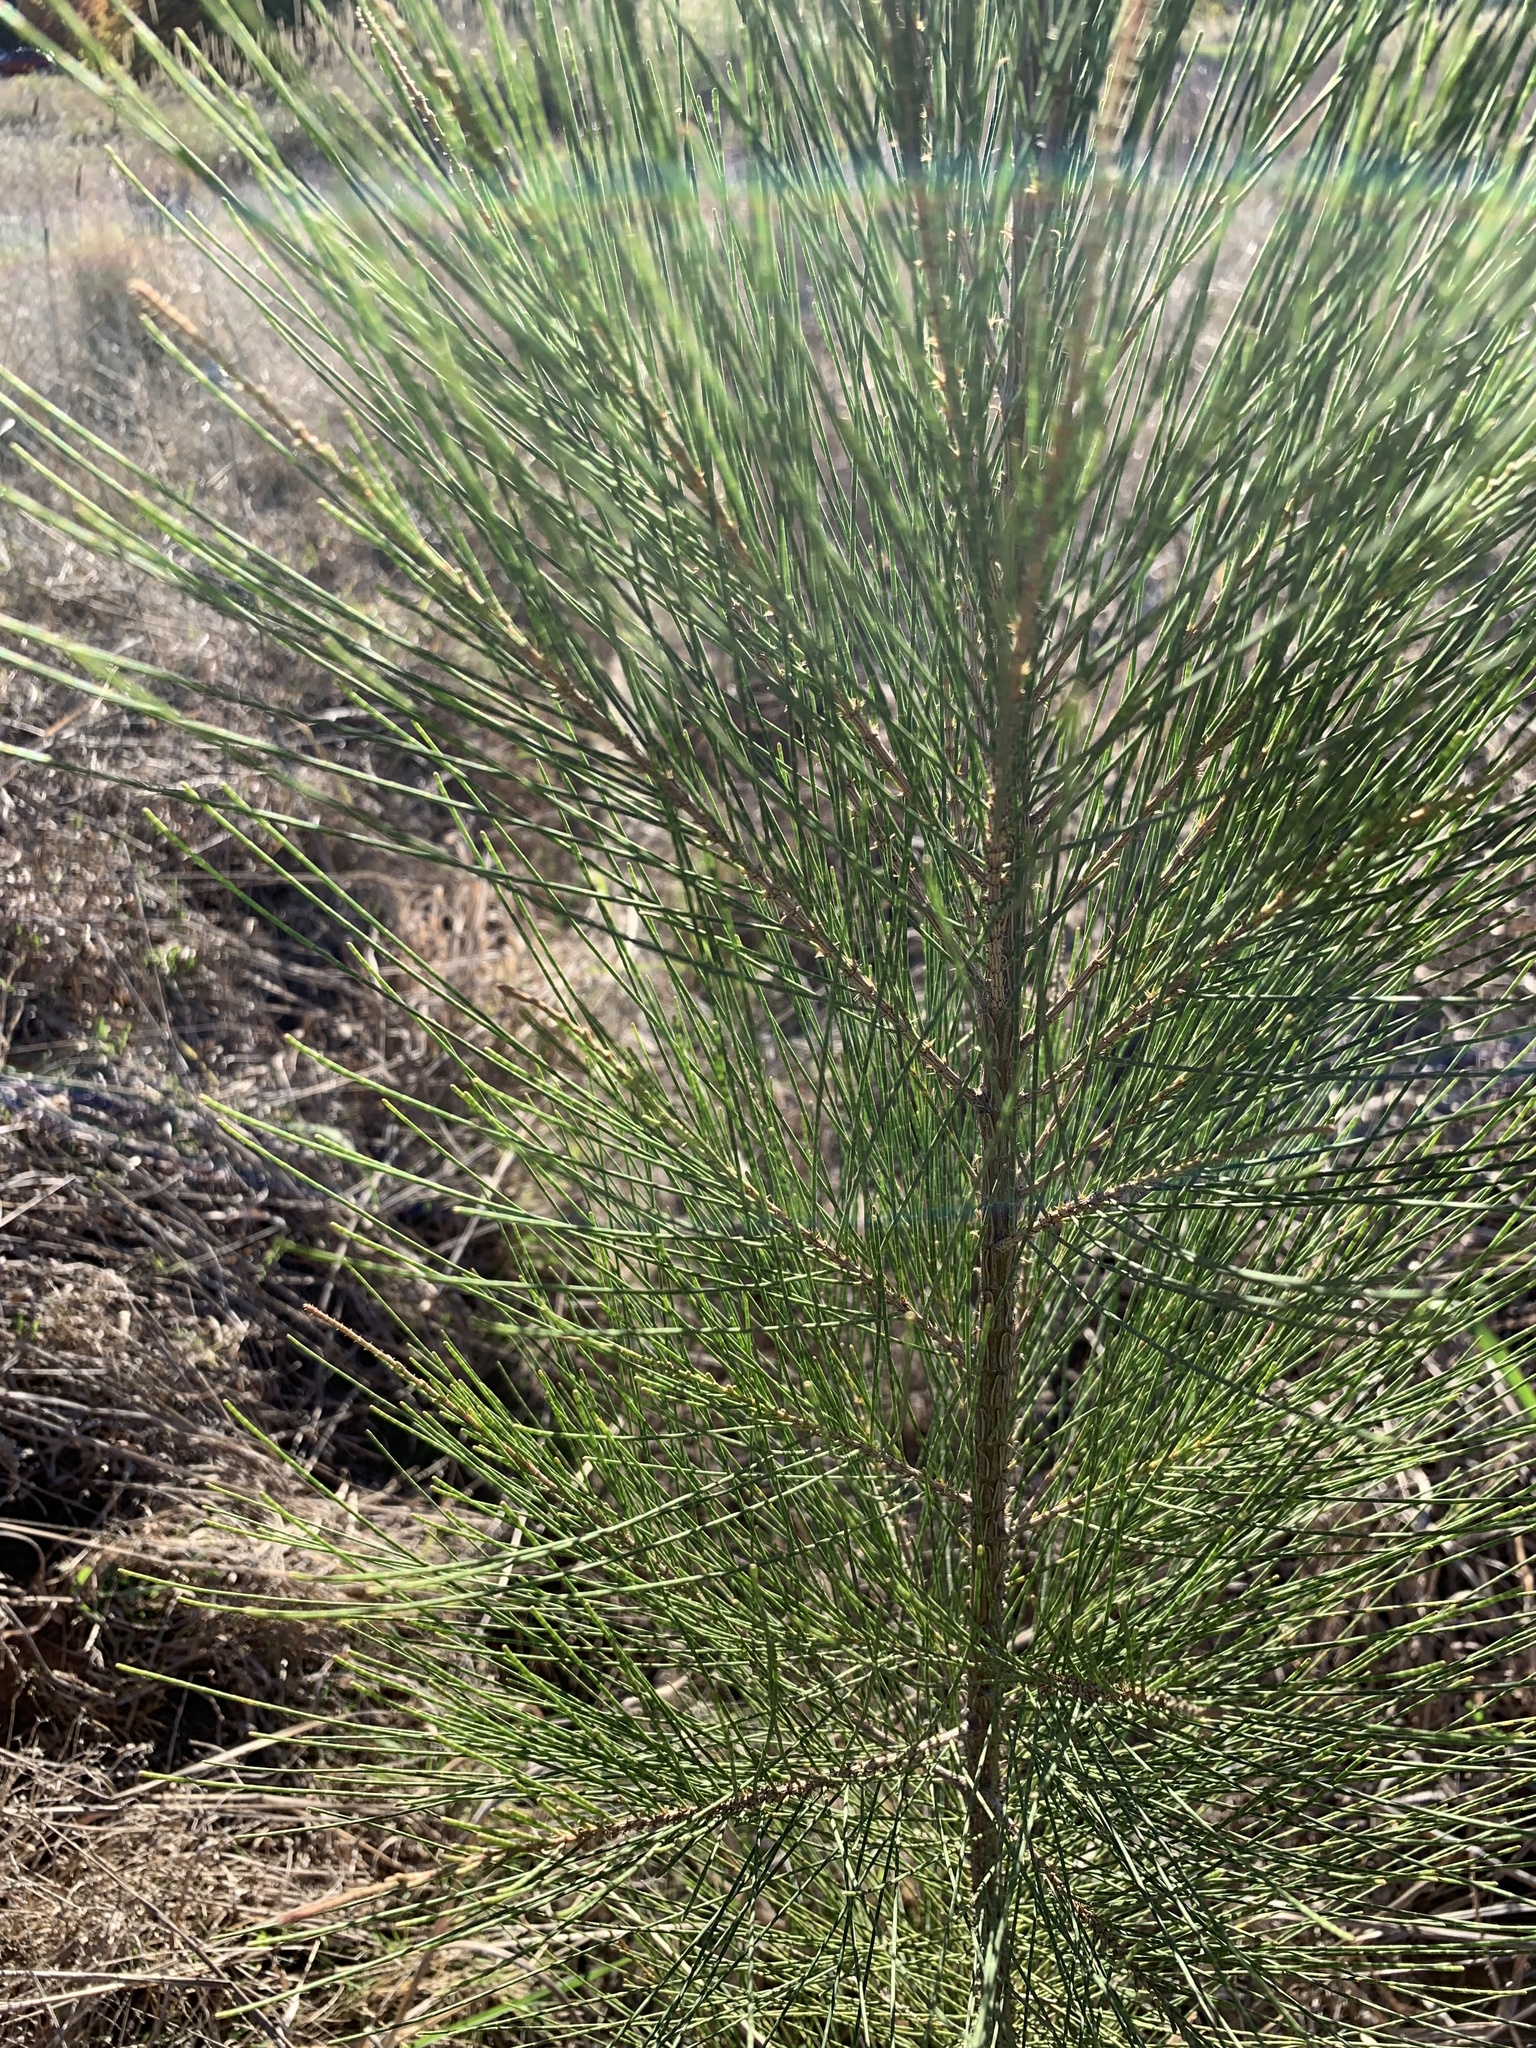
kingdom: Plantae
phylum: Tracheophyta
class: Magnoliopsida
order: Fagales
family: Casuarinaceae
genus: Casuarina
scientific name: Casuarina cunninghamiana
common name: River sheoak
